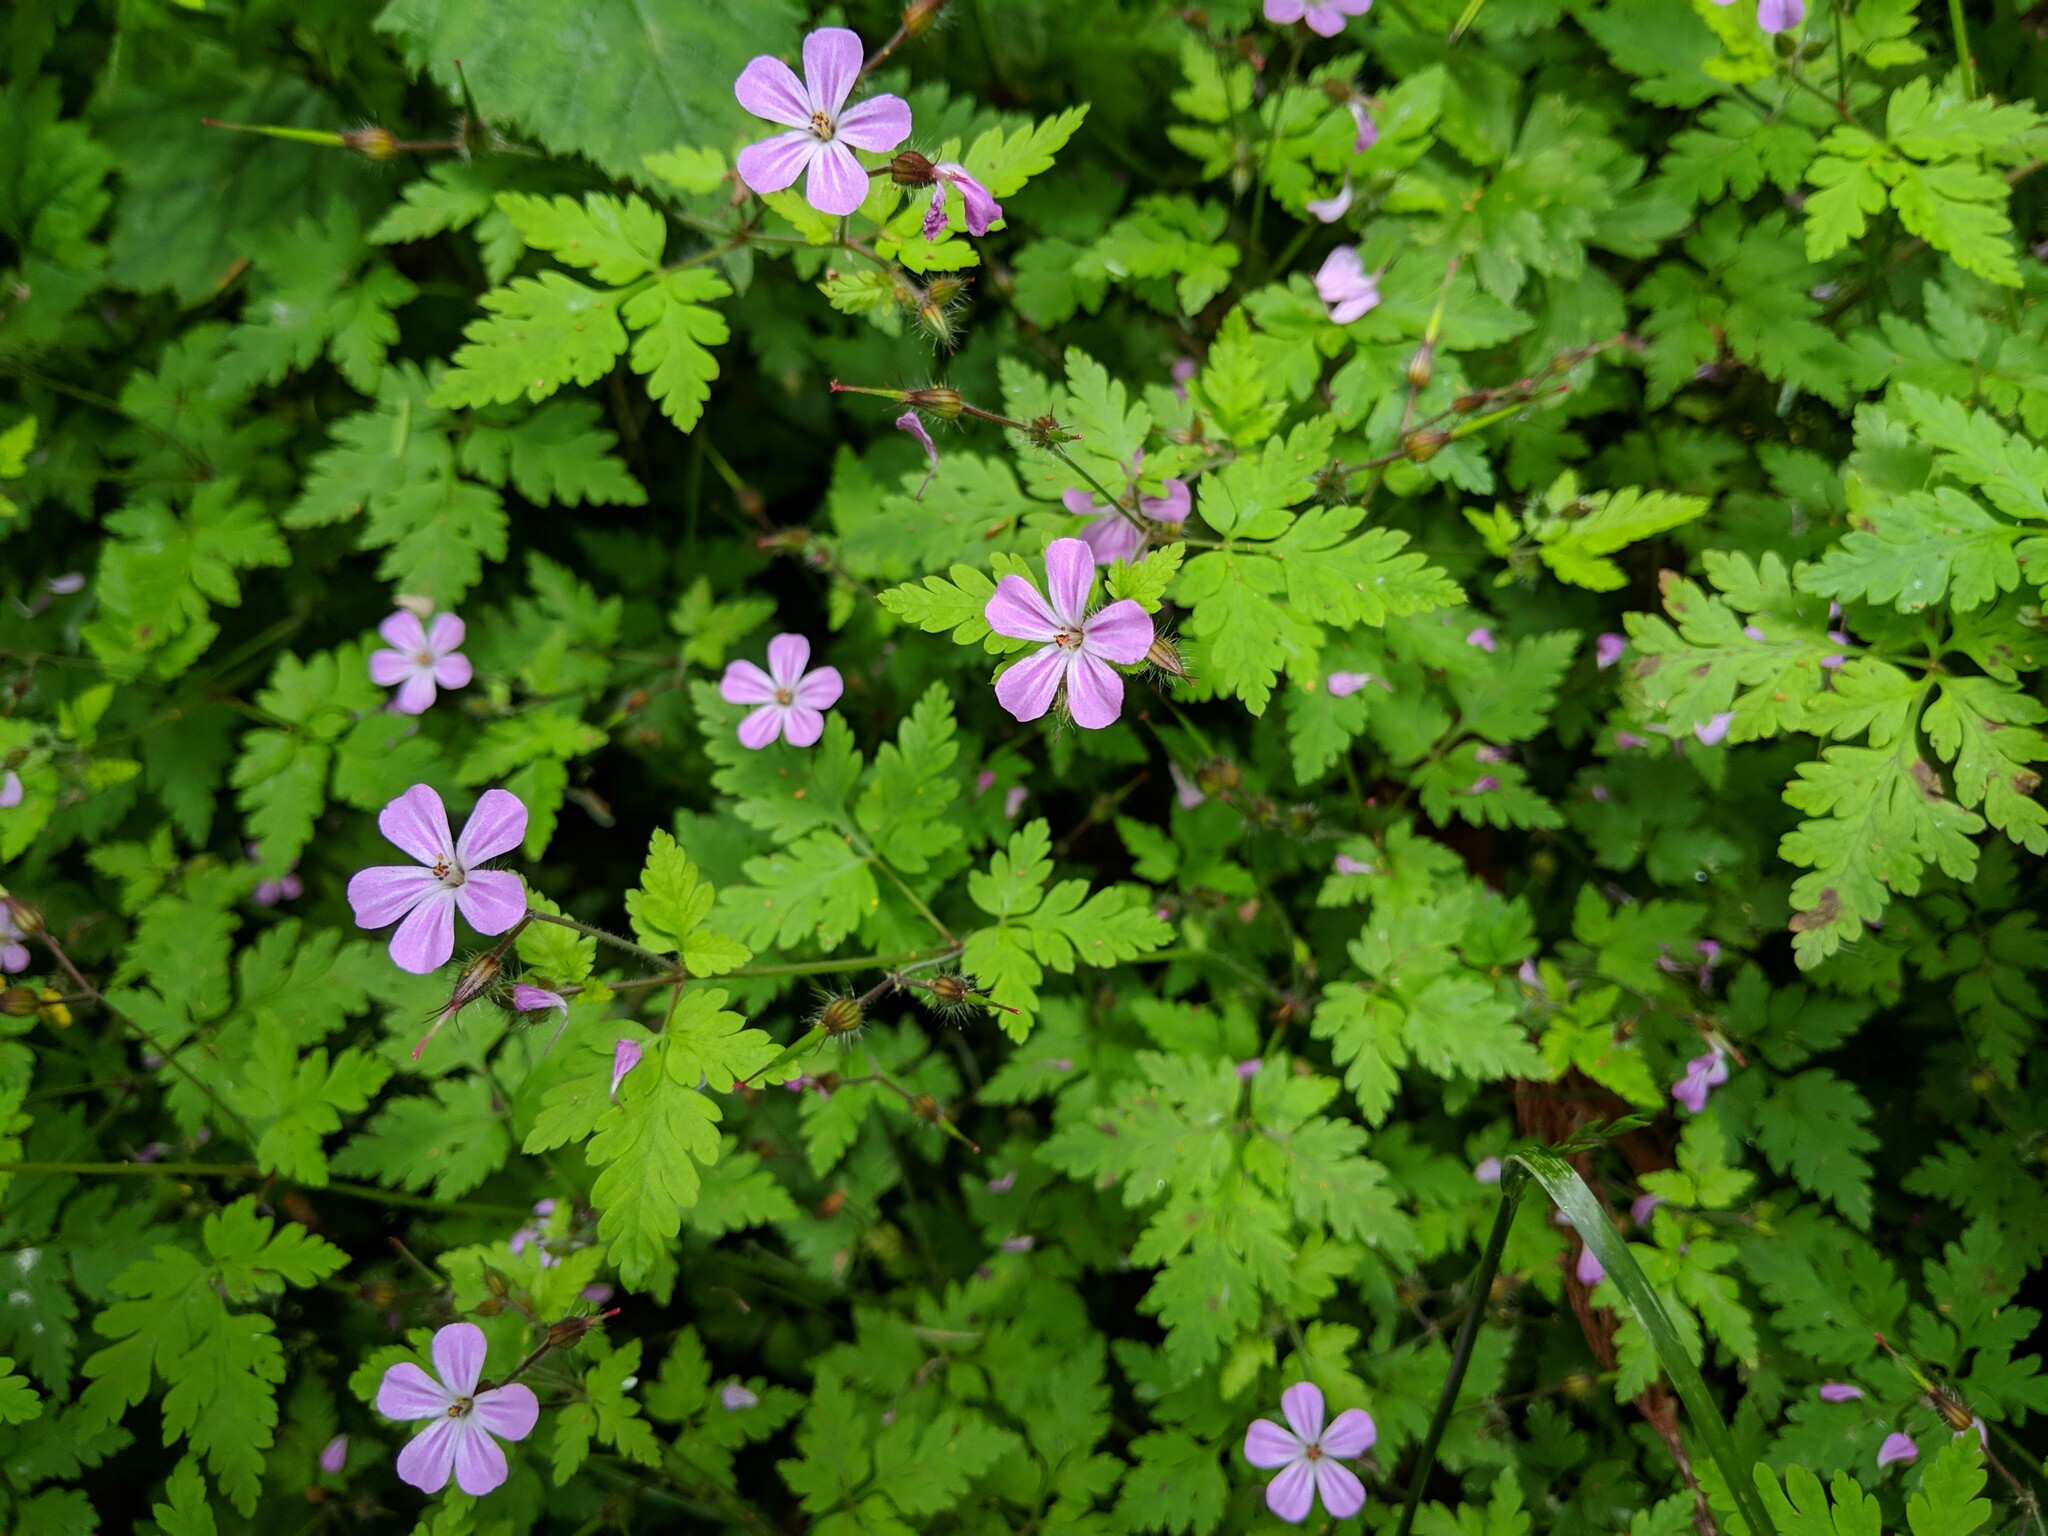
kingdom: Plantae
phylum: Tracheophyta
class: Magnoliopsida
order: Geraniales
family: Geraniaceae
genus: Geranium
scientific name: Geranium robertianum
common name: Herb-robert
